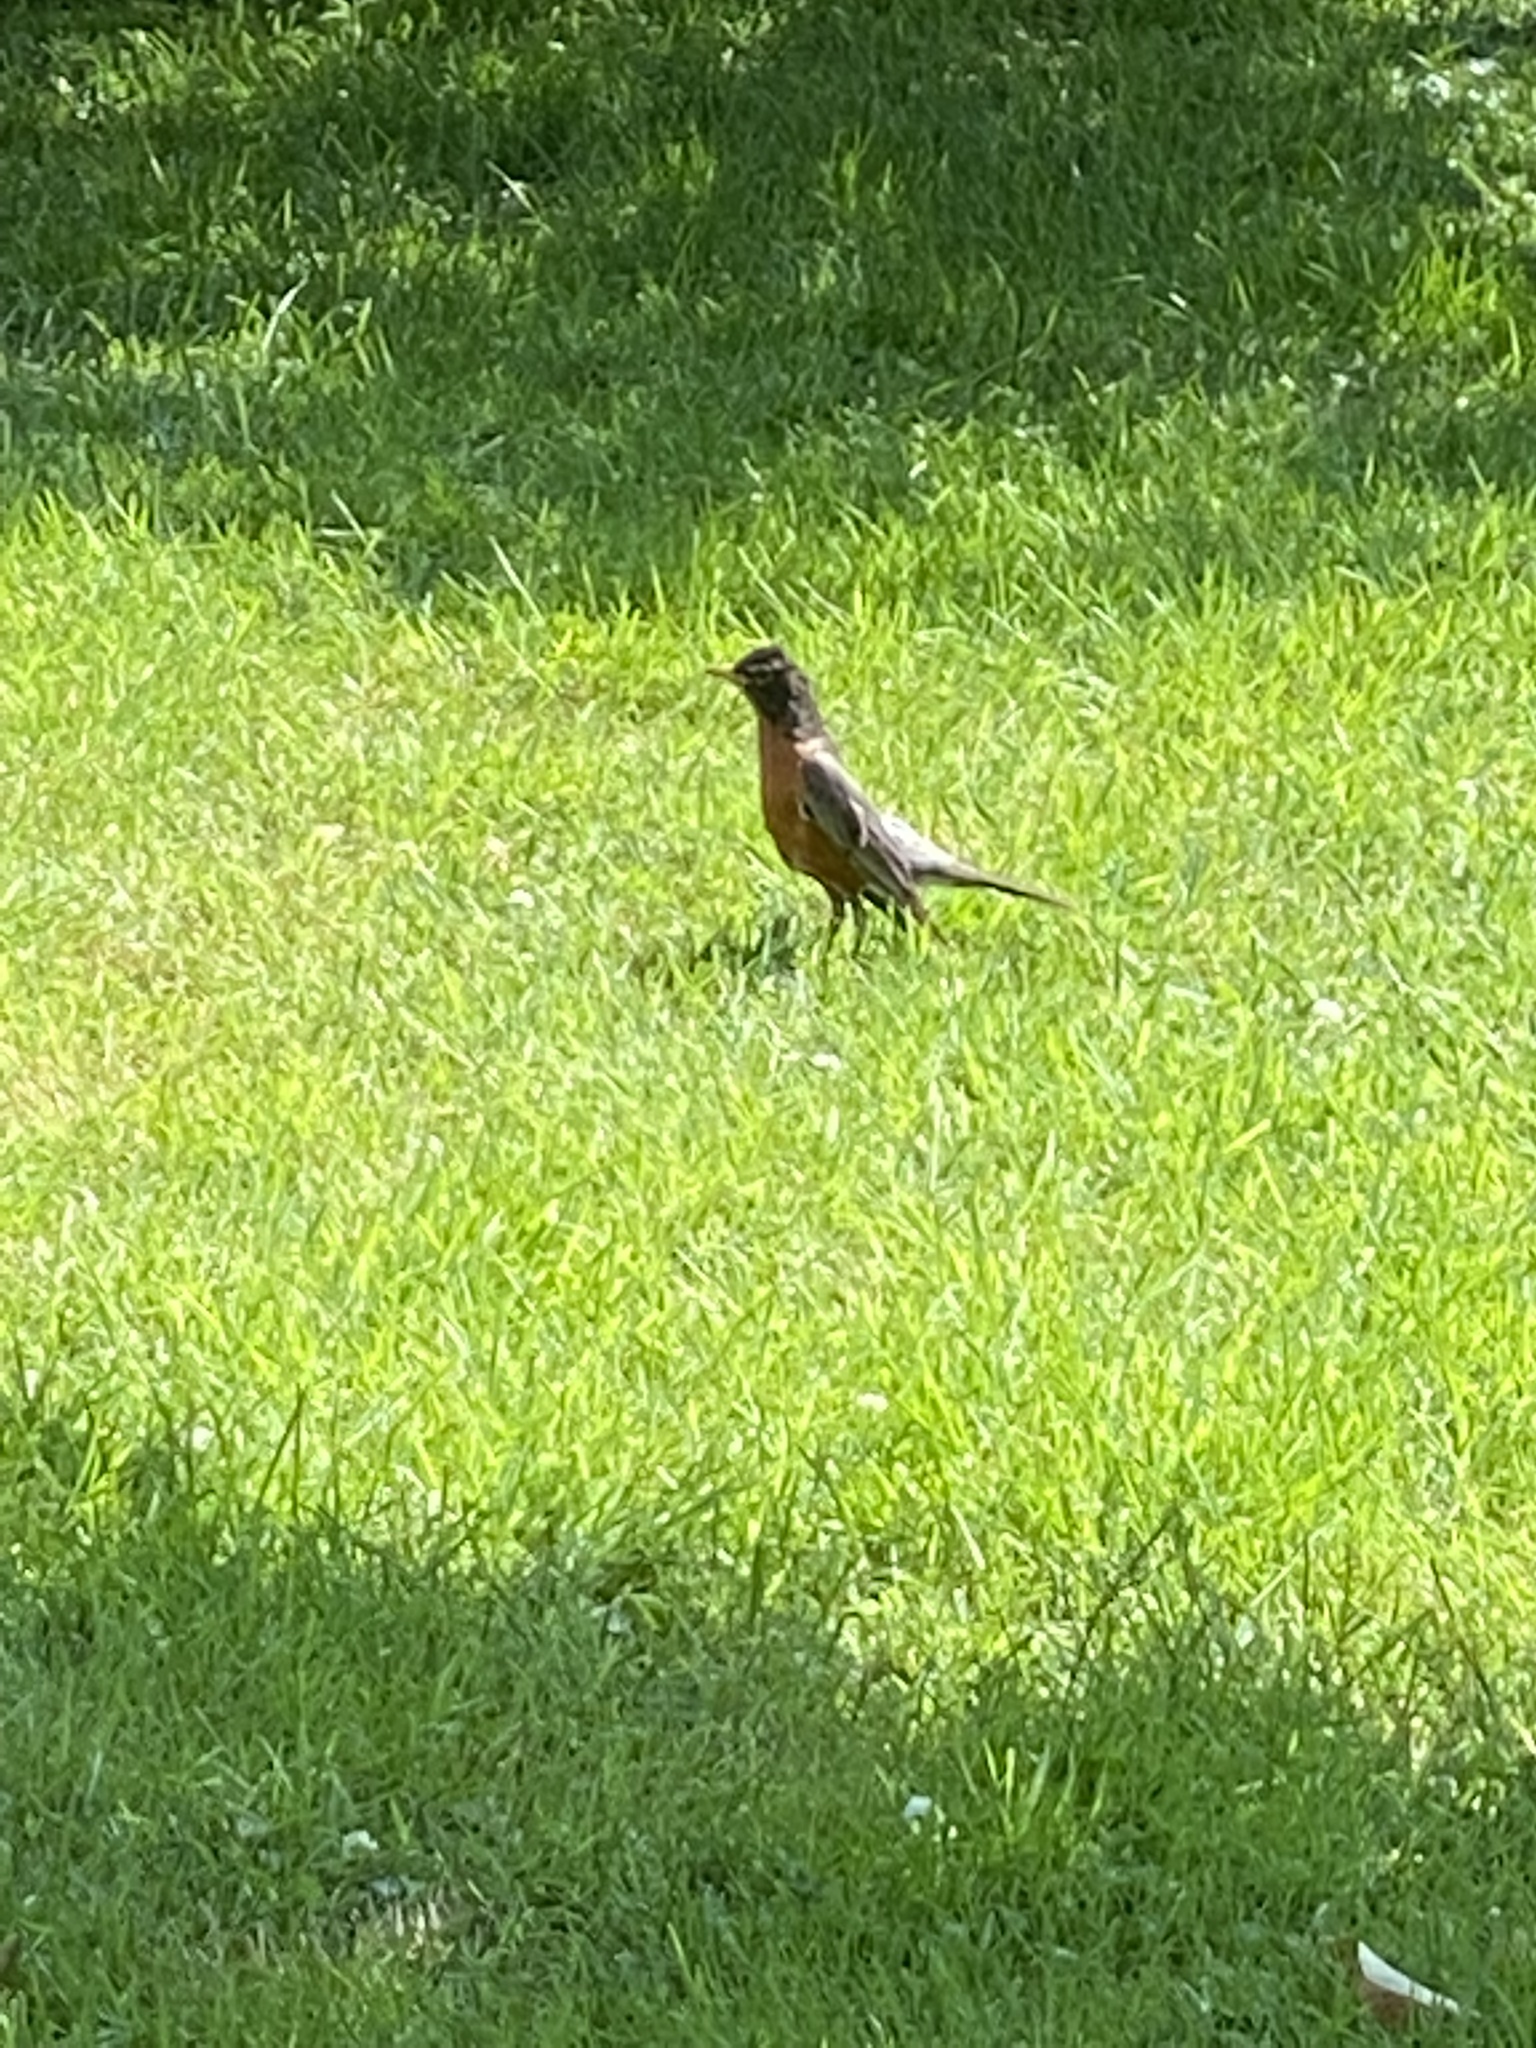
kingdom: Animalia
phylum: Chordata
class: Aves
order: Passeriformes
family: Turdidae
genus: Turdus
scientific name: Turdus migratorius
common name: American robin
